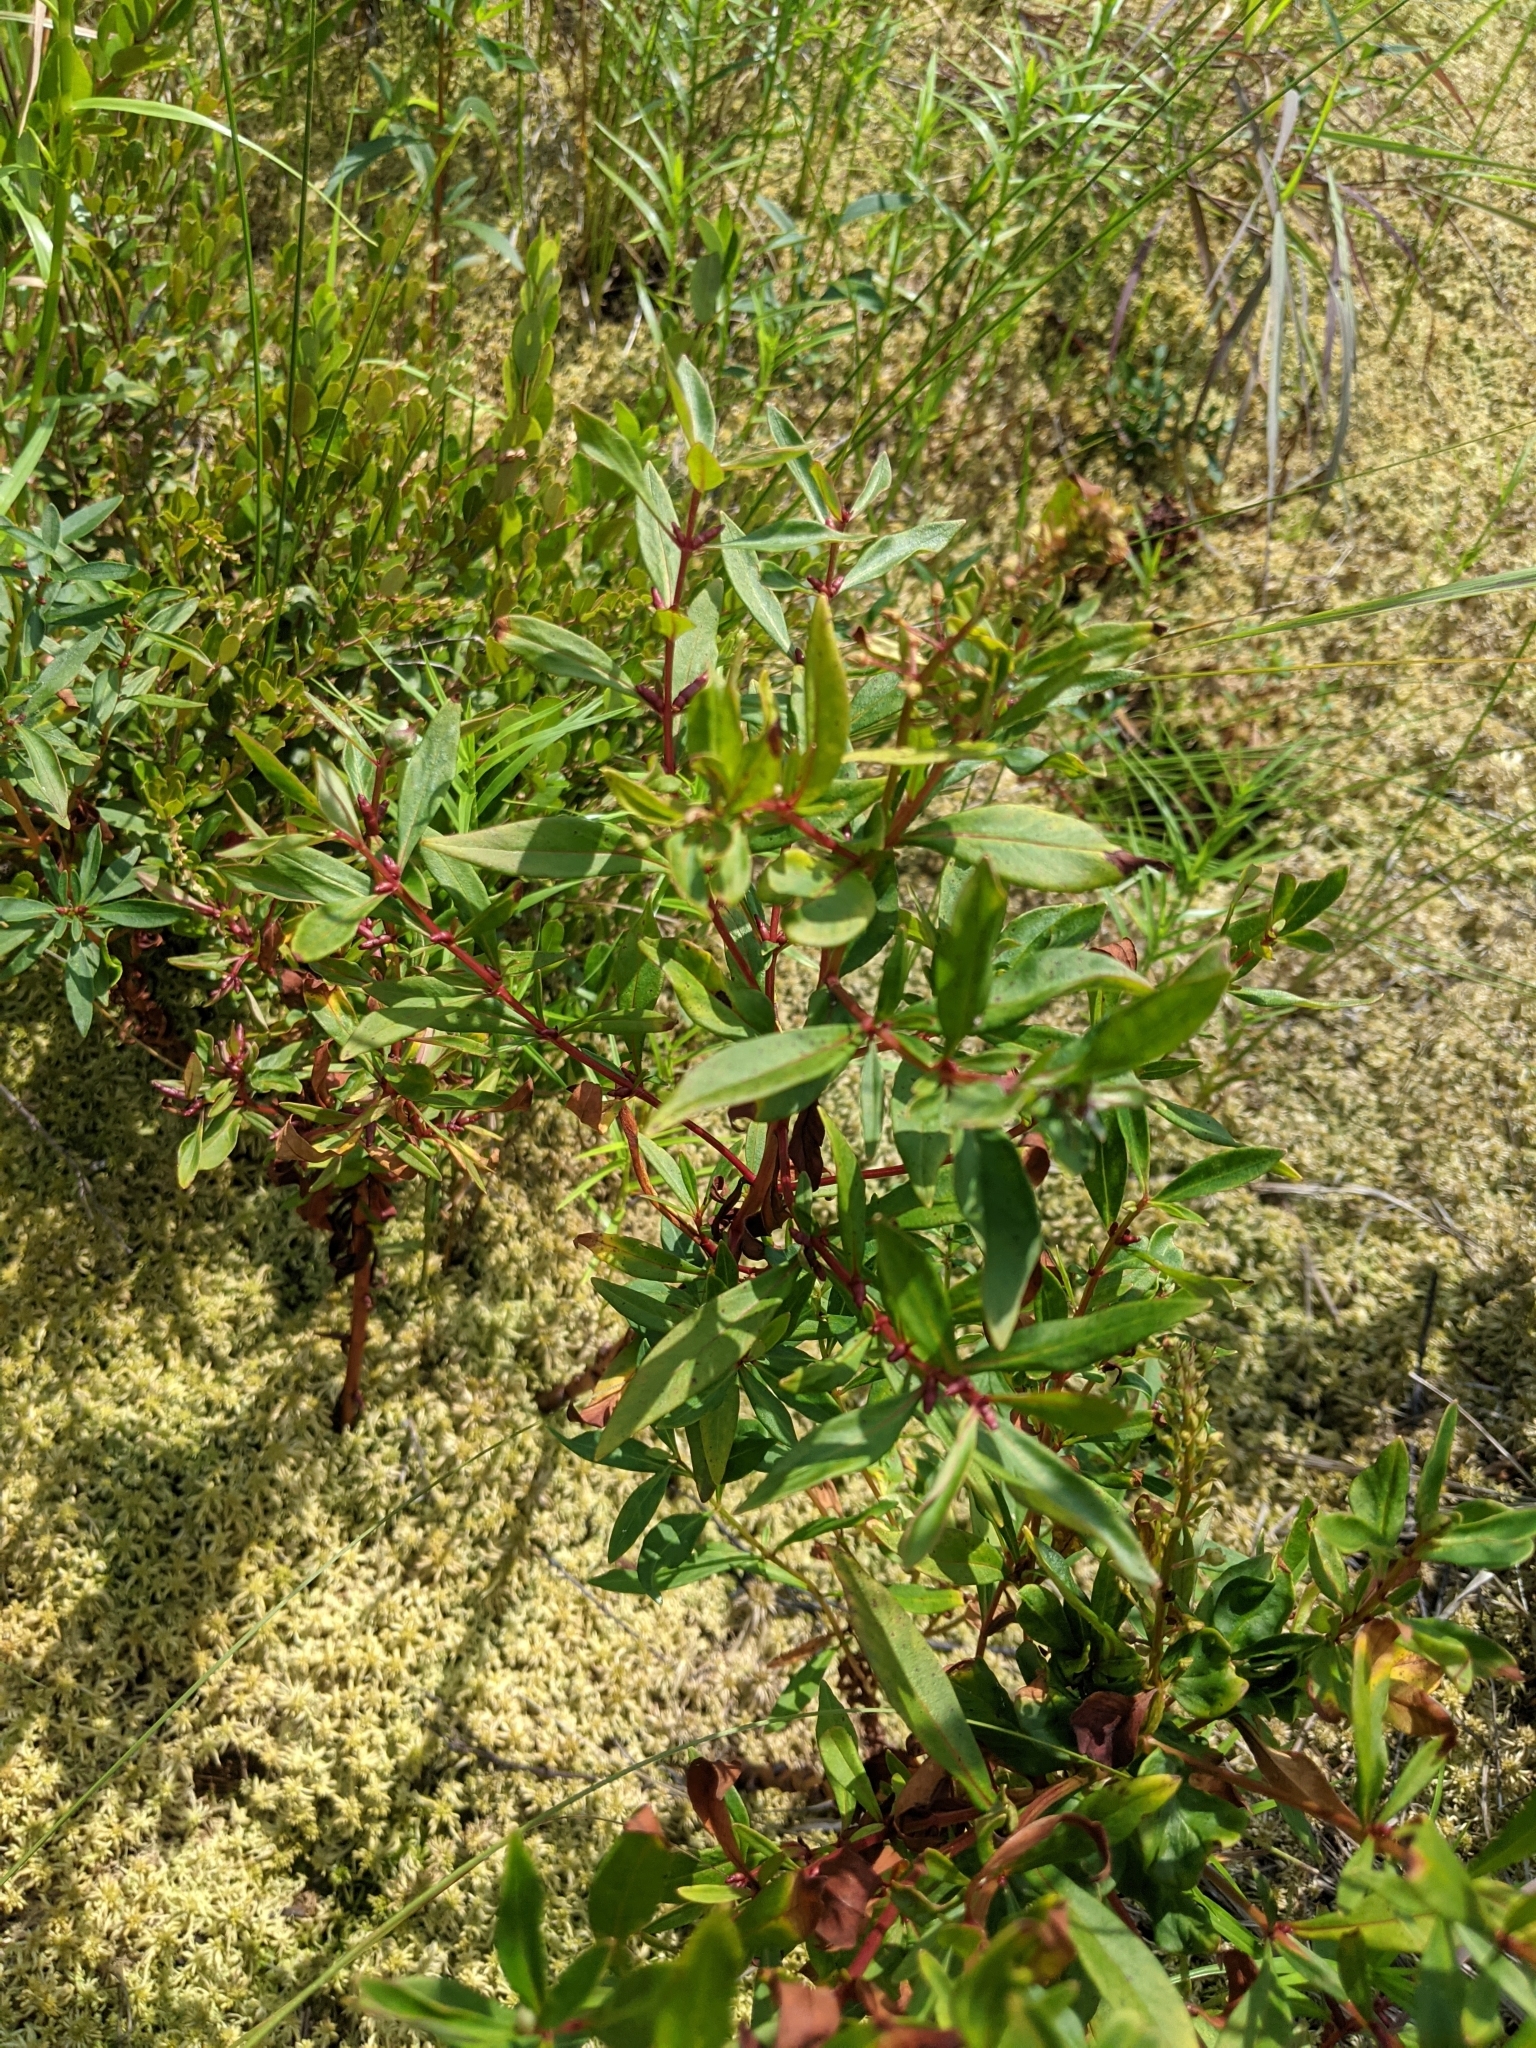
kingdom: Plantae
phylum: Tracheophyta
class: Magnoliopsida
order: Ericales
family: Primulaceae
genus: Lysimachia
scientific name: Lysimachia terrestris
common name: Lake loosestrife
